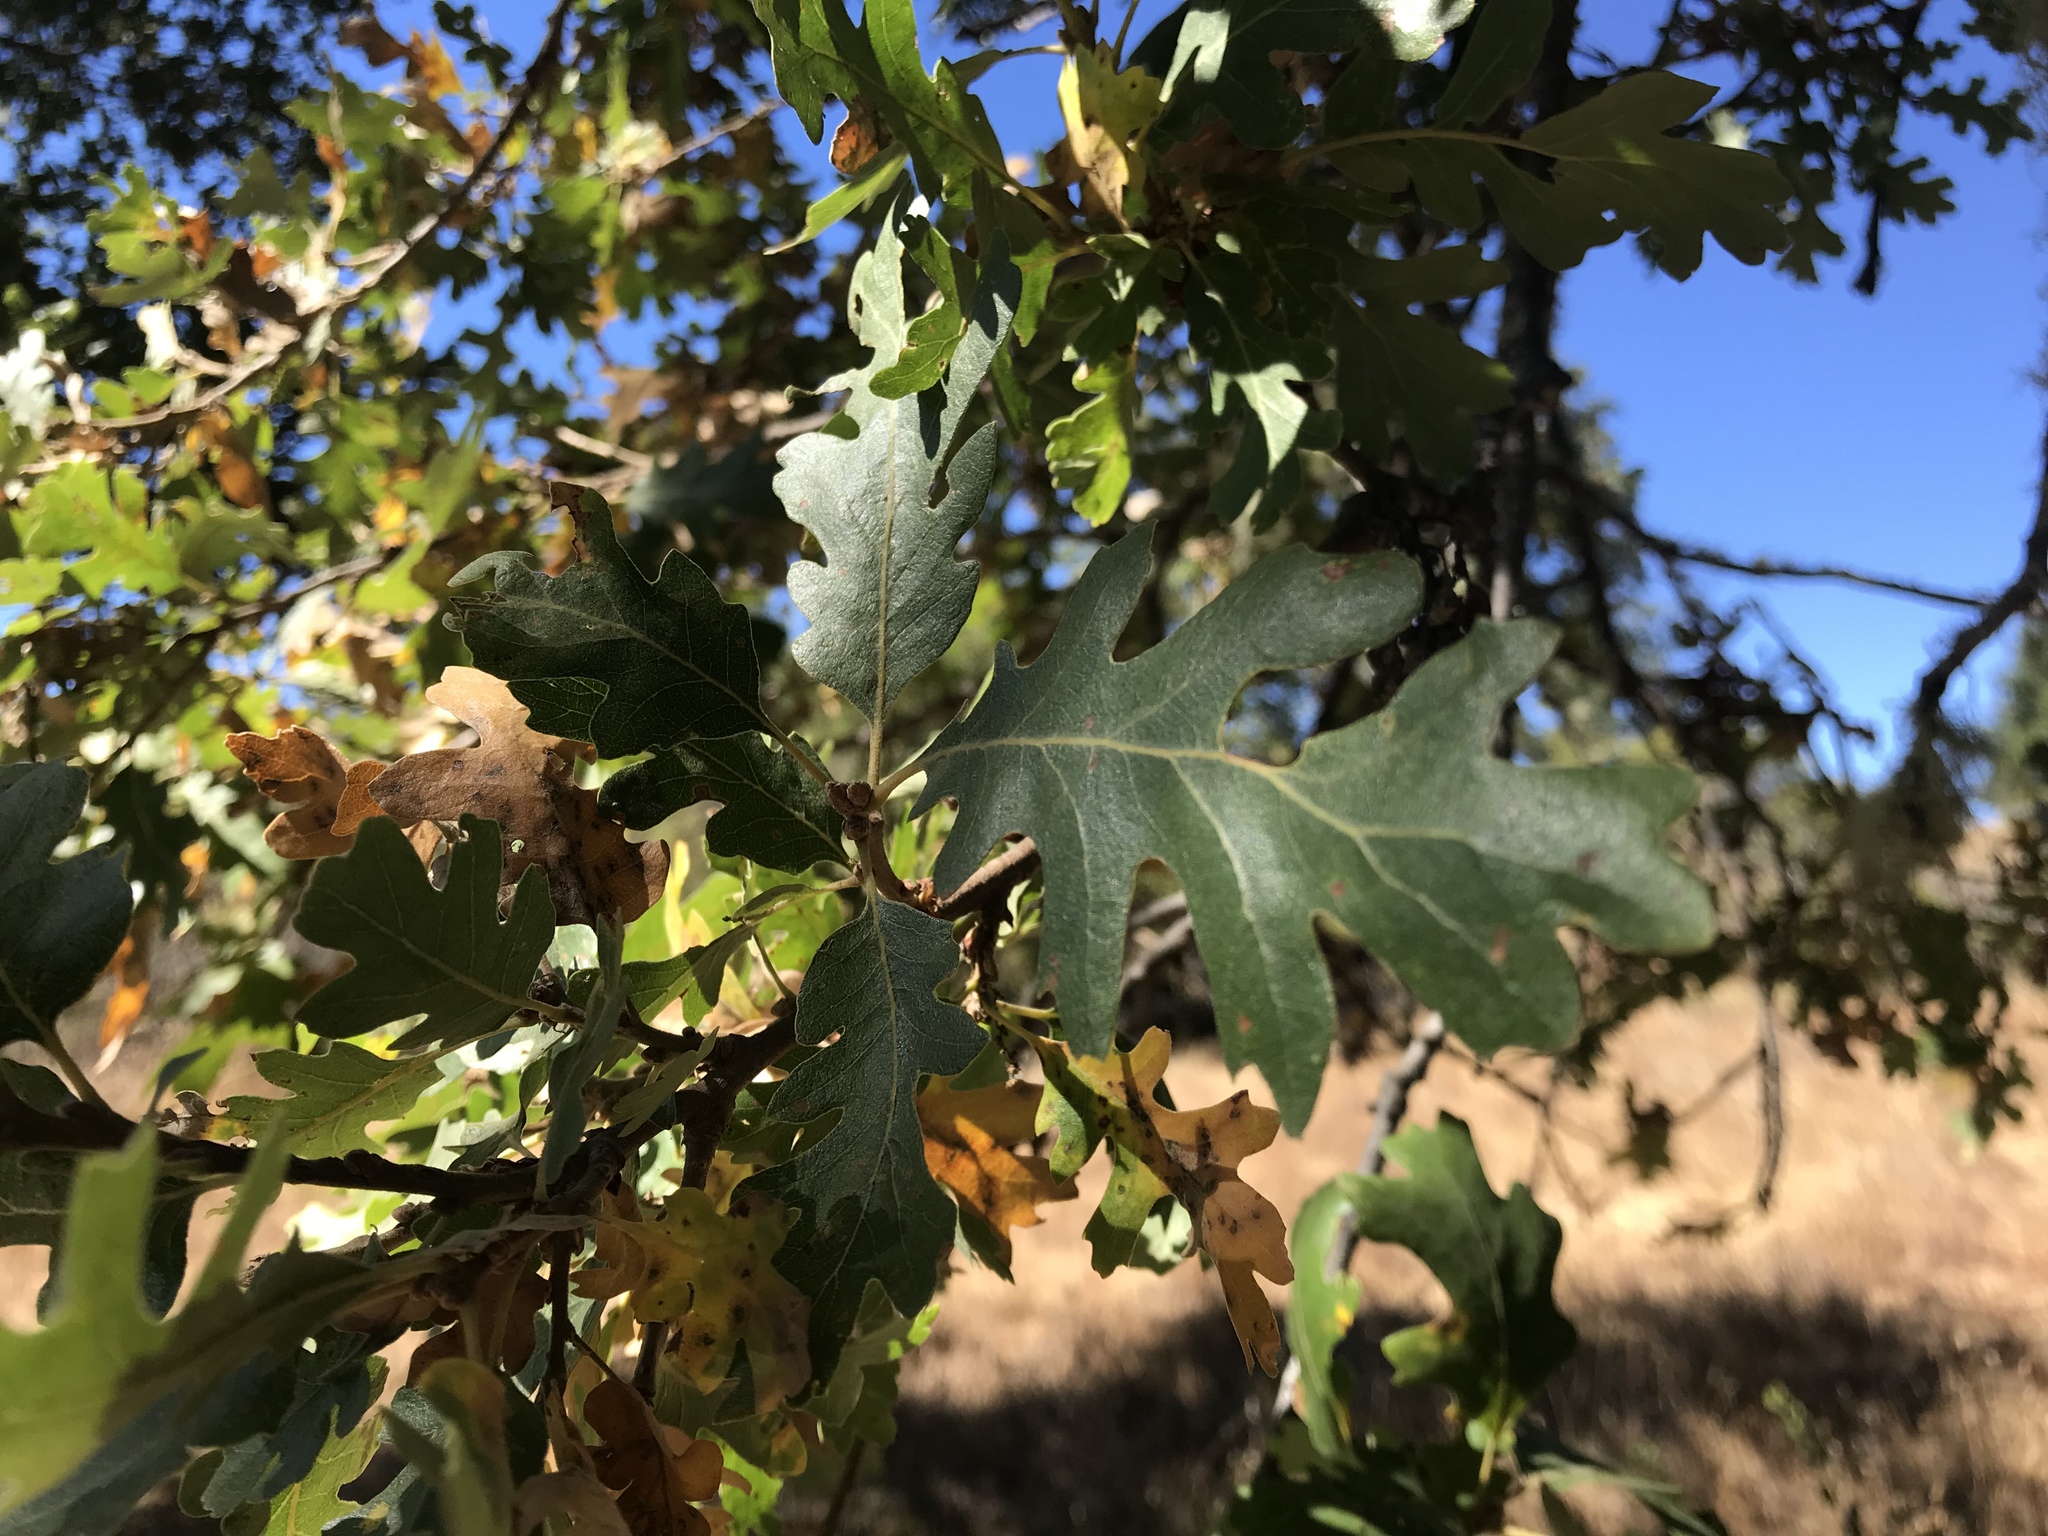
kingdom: Plantae
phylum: Tracheophyta
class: Magnoliopsida
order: Fagales
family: Fagaceae
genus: Quercus
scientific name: Quercus lobata
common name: Valley oak
